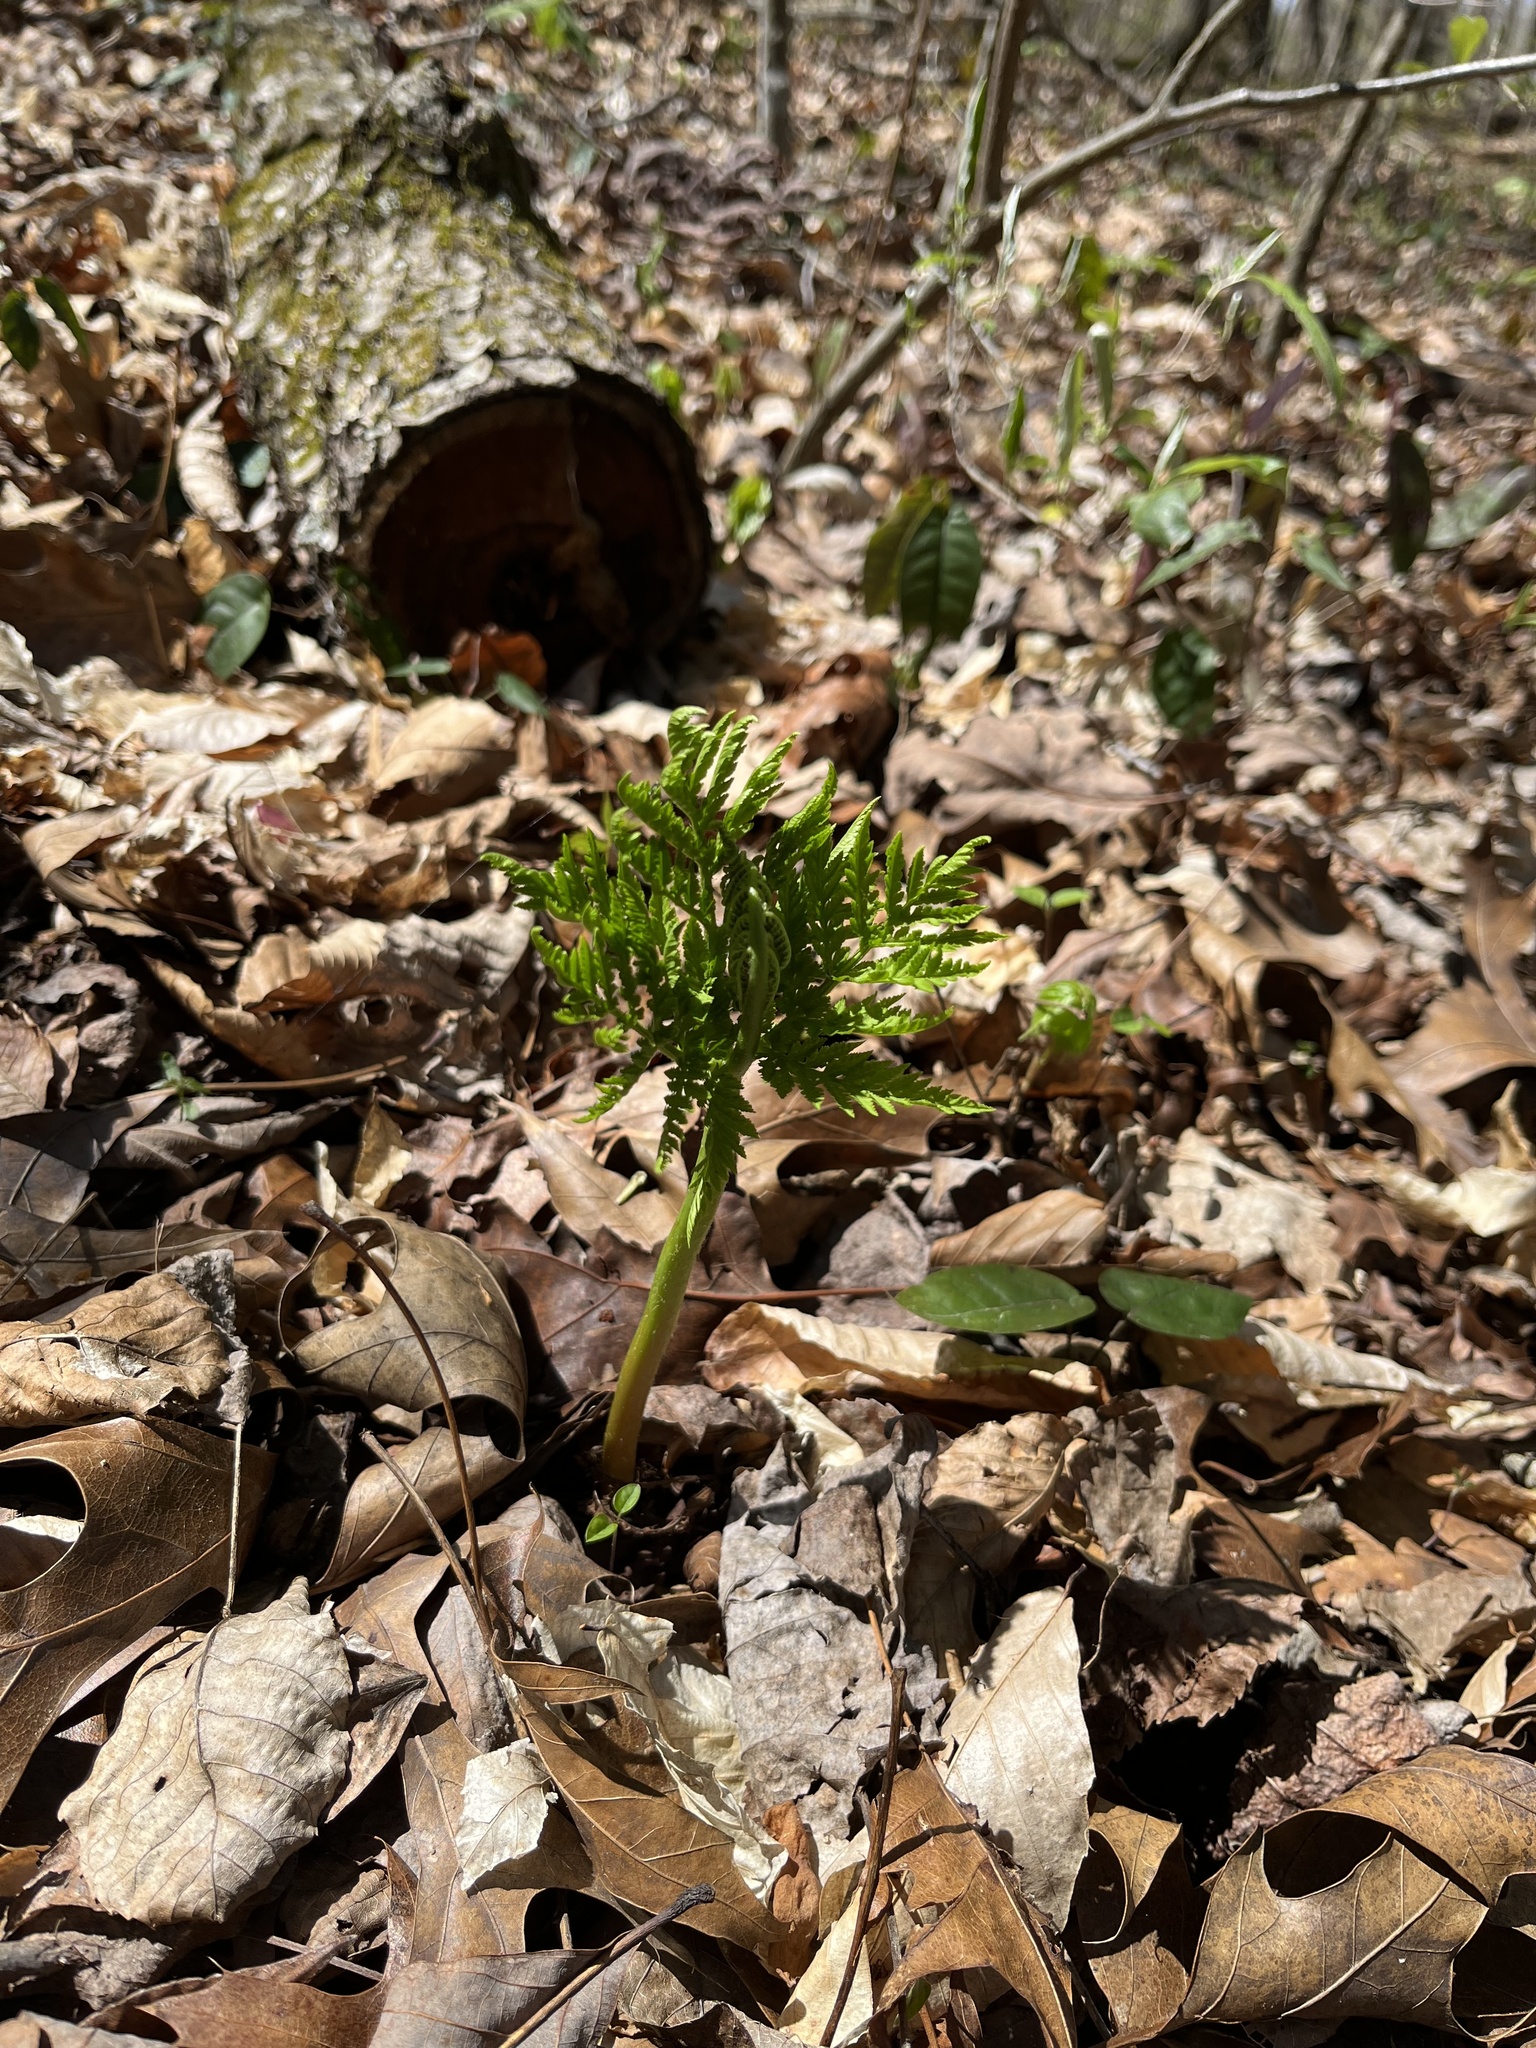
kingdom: Plantae
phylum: Tracheophyta
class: Polypodiopsida
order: Ophioglossales
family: Ophioglossaceae
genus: Botrypus
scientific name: Botrypus virginianus
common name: Common grapefern
